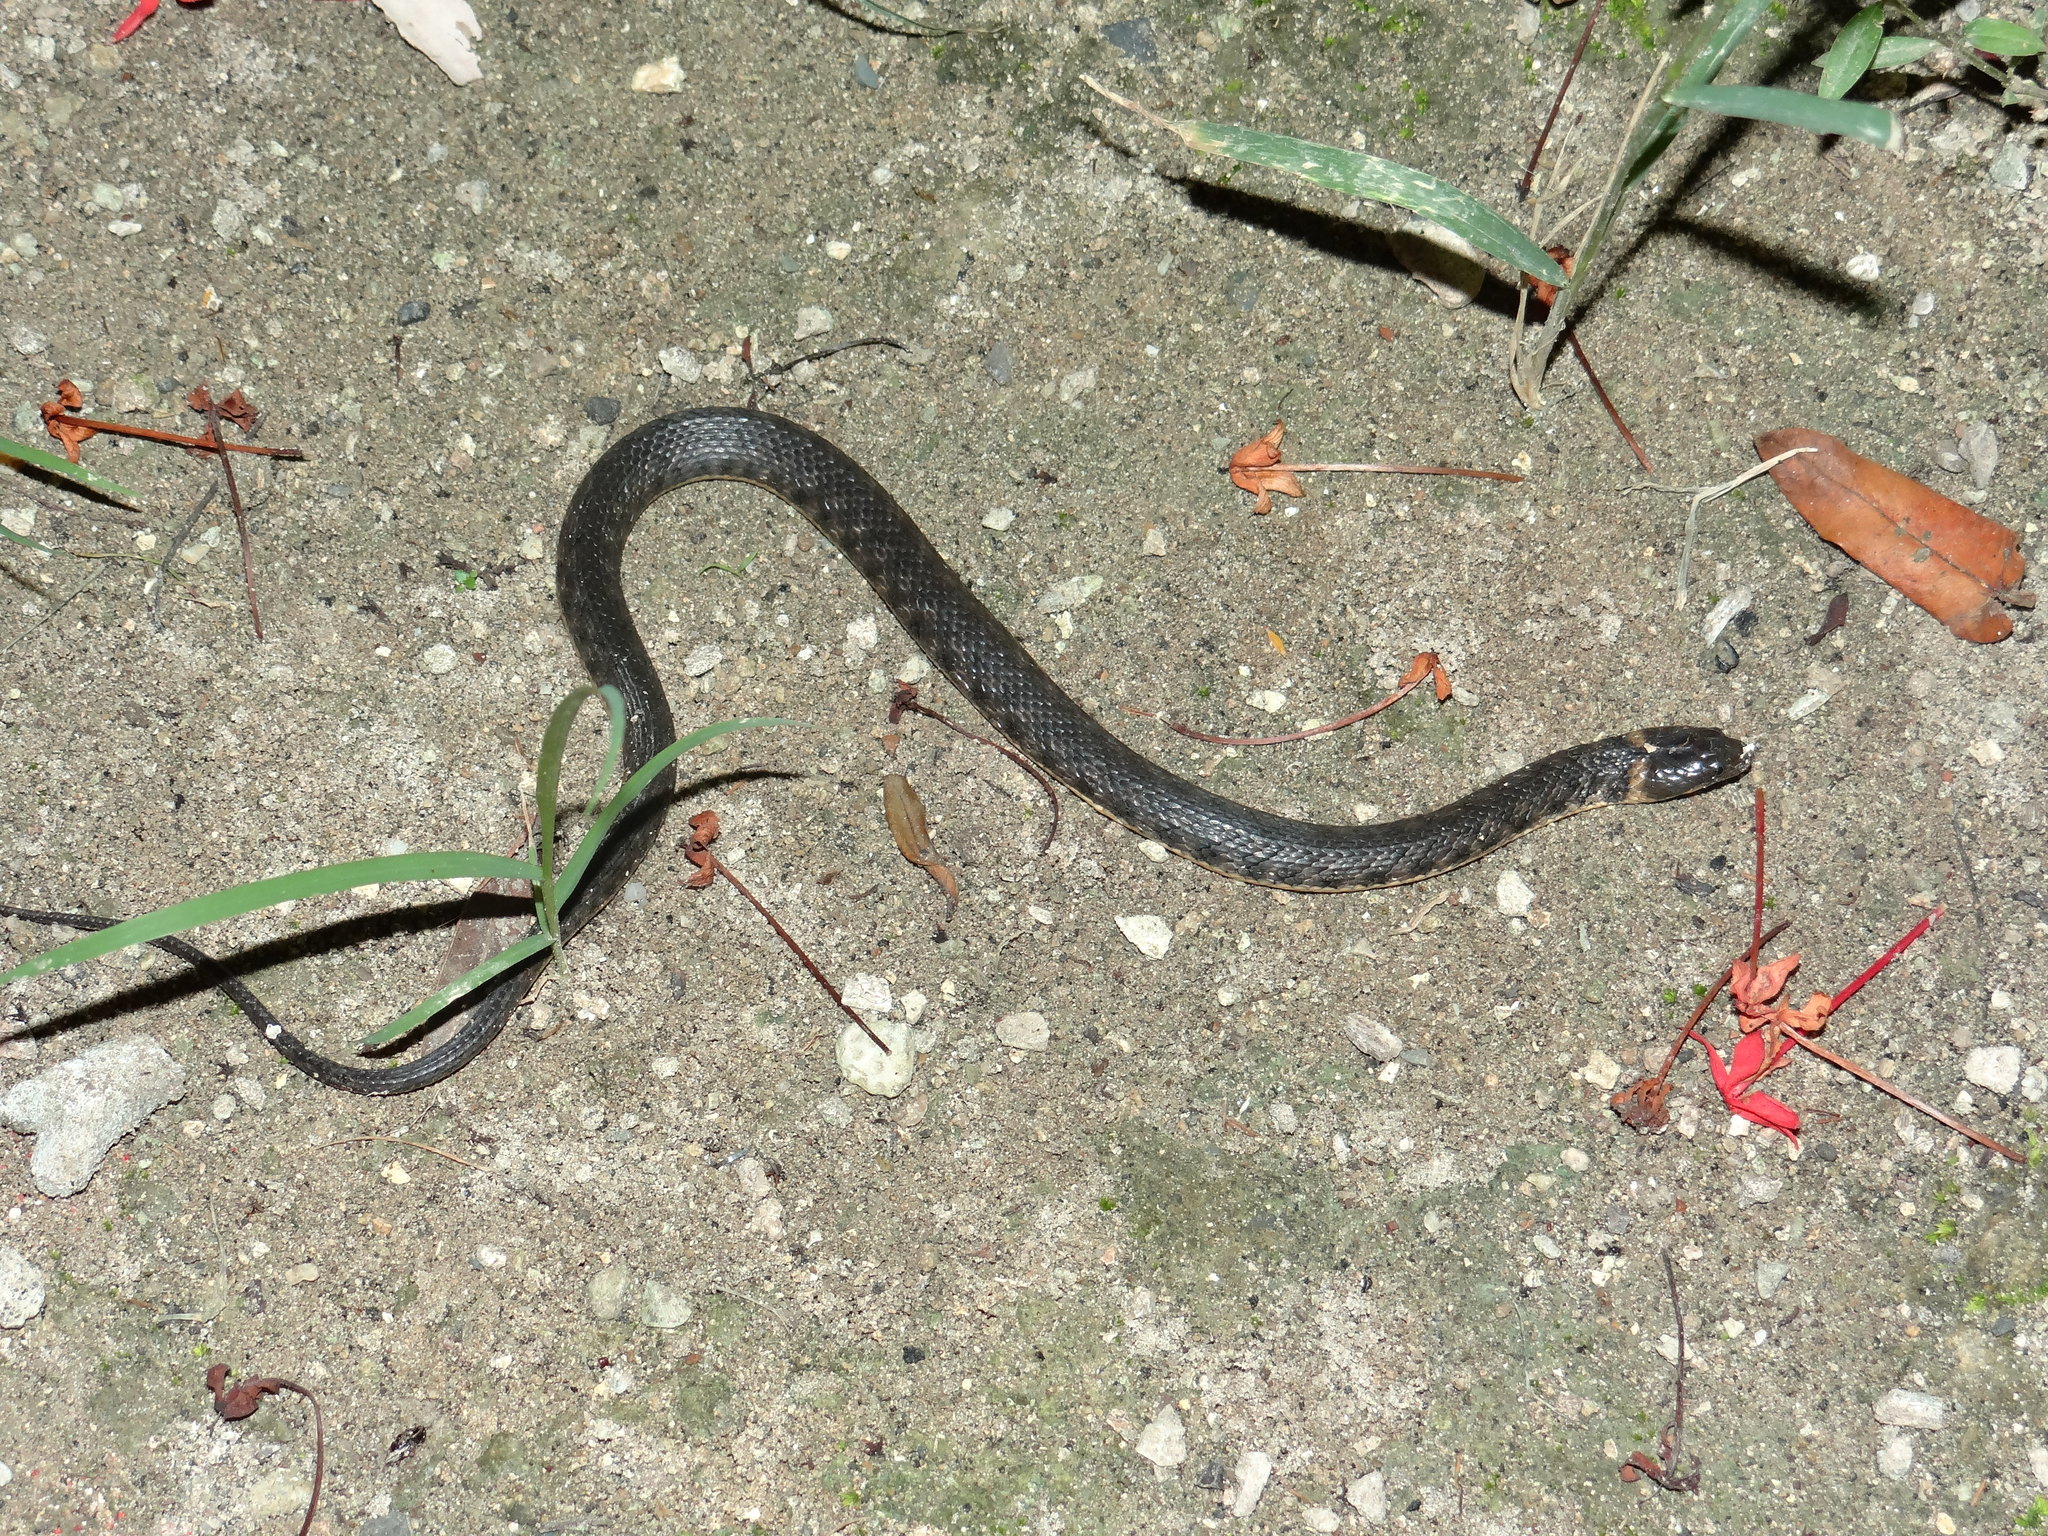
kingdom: Animalia
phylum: Chordata
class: Squamata
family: Colubridae
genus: Helicops
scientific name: Helicops danieli
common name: Daniel's keelback
